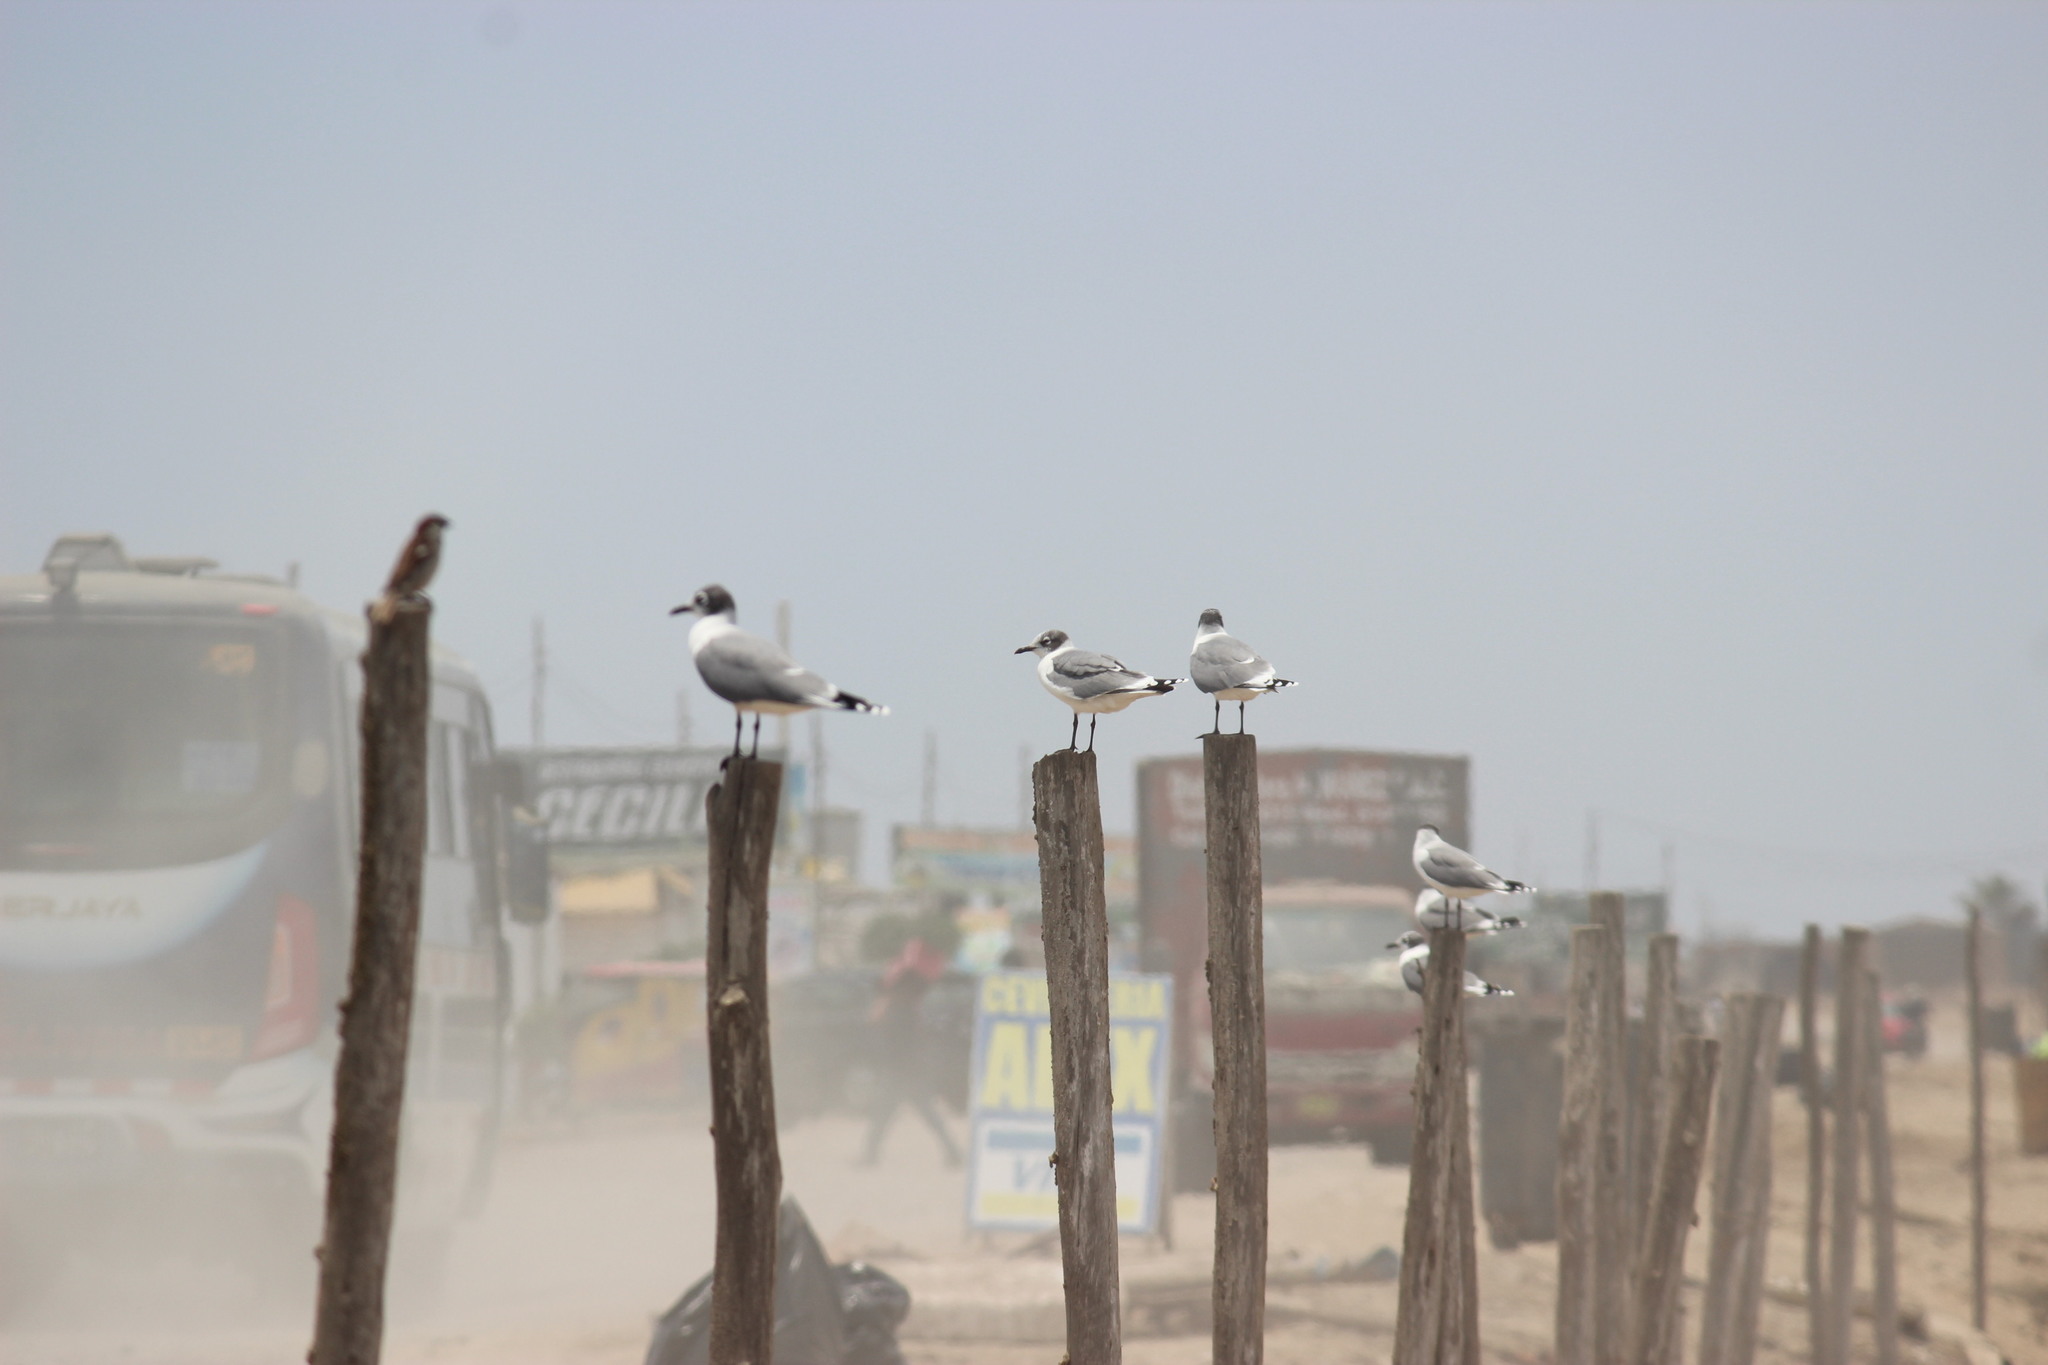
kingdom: Animalia
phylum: Chordata
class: Aves
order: Charadriiformes
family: Laridae
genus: Leucophaeus
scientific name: Leucophaeus pipixcan
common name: Franklin's gull
